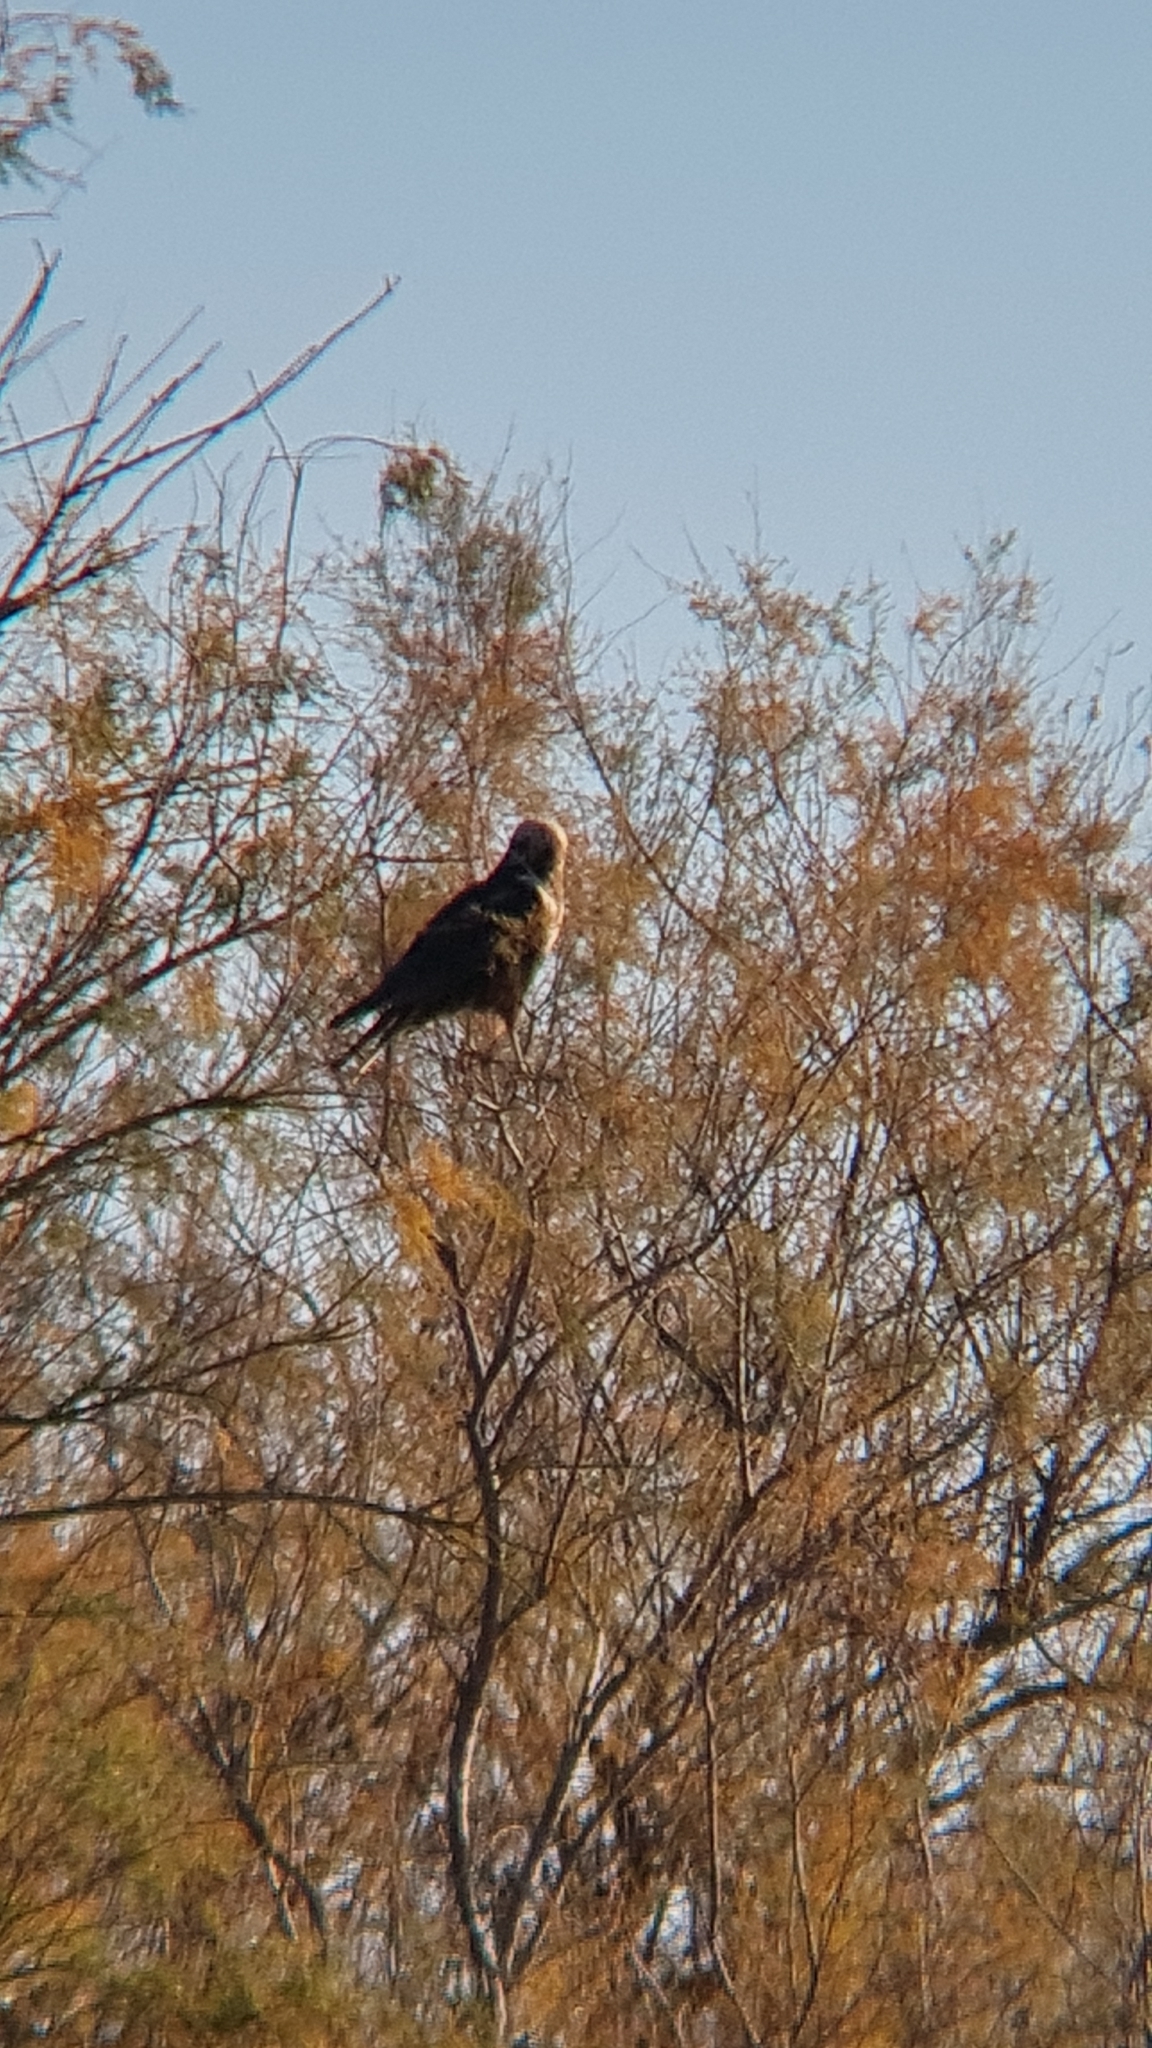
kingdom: Animalia
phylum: Chordata
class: Aves
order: Accipitriformes
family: Accipitridae
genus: Circus
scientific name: Circus aeruginosus
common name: Western marsh harrier
